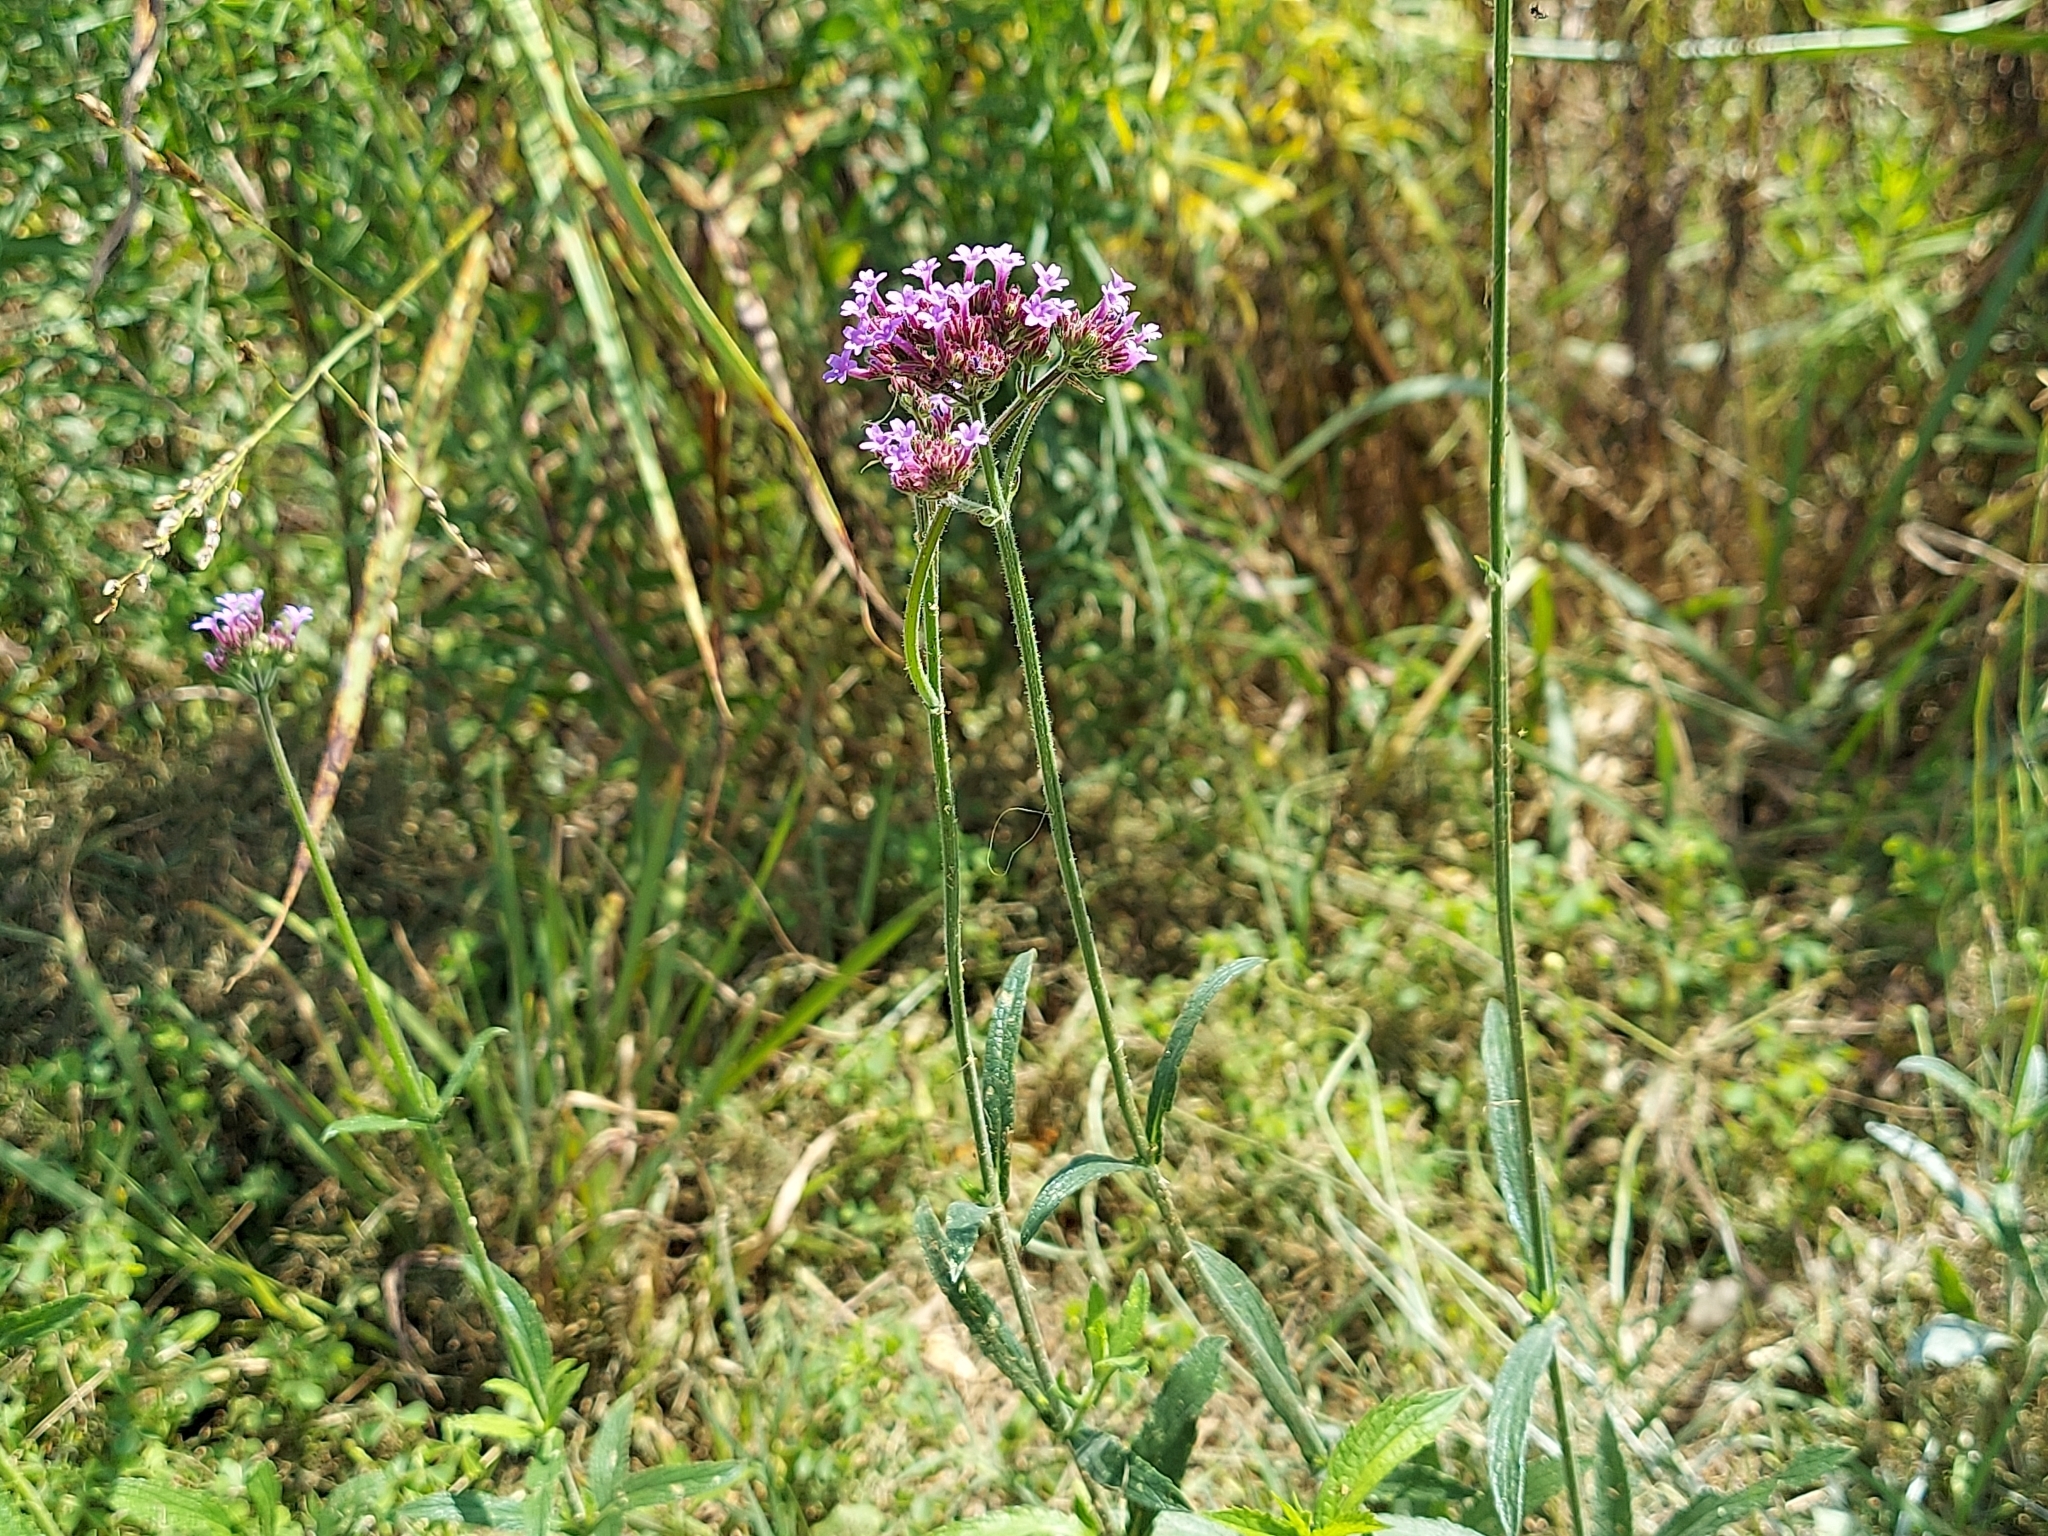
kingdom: Plantae
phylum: Tracheophyta
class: Magnoliopsida
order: Lamiales
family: Verbenaceae
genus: Verbena
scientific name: Verbena bonariensis
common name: Purpletop vervain
